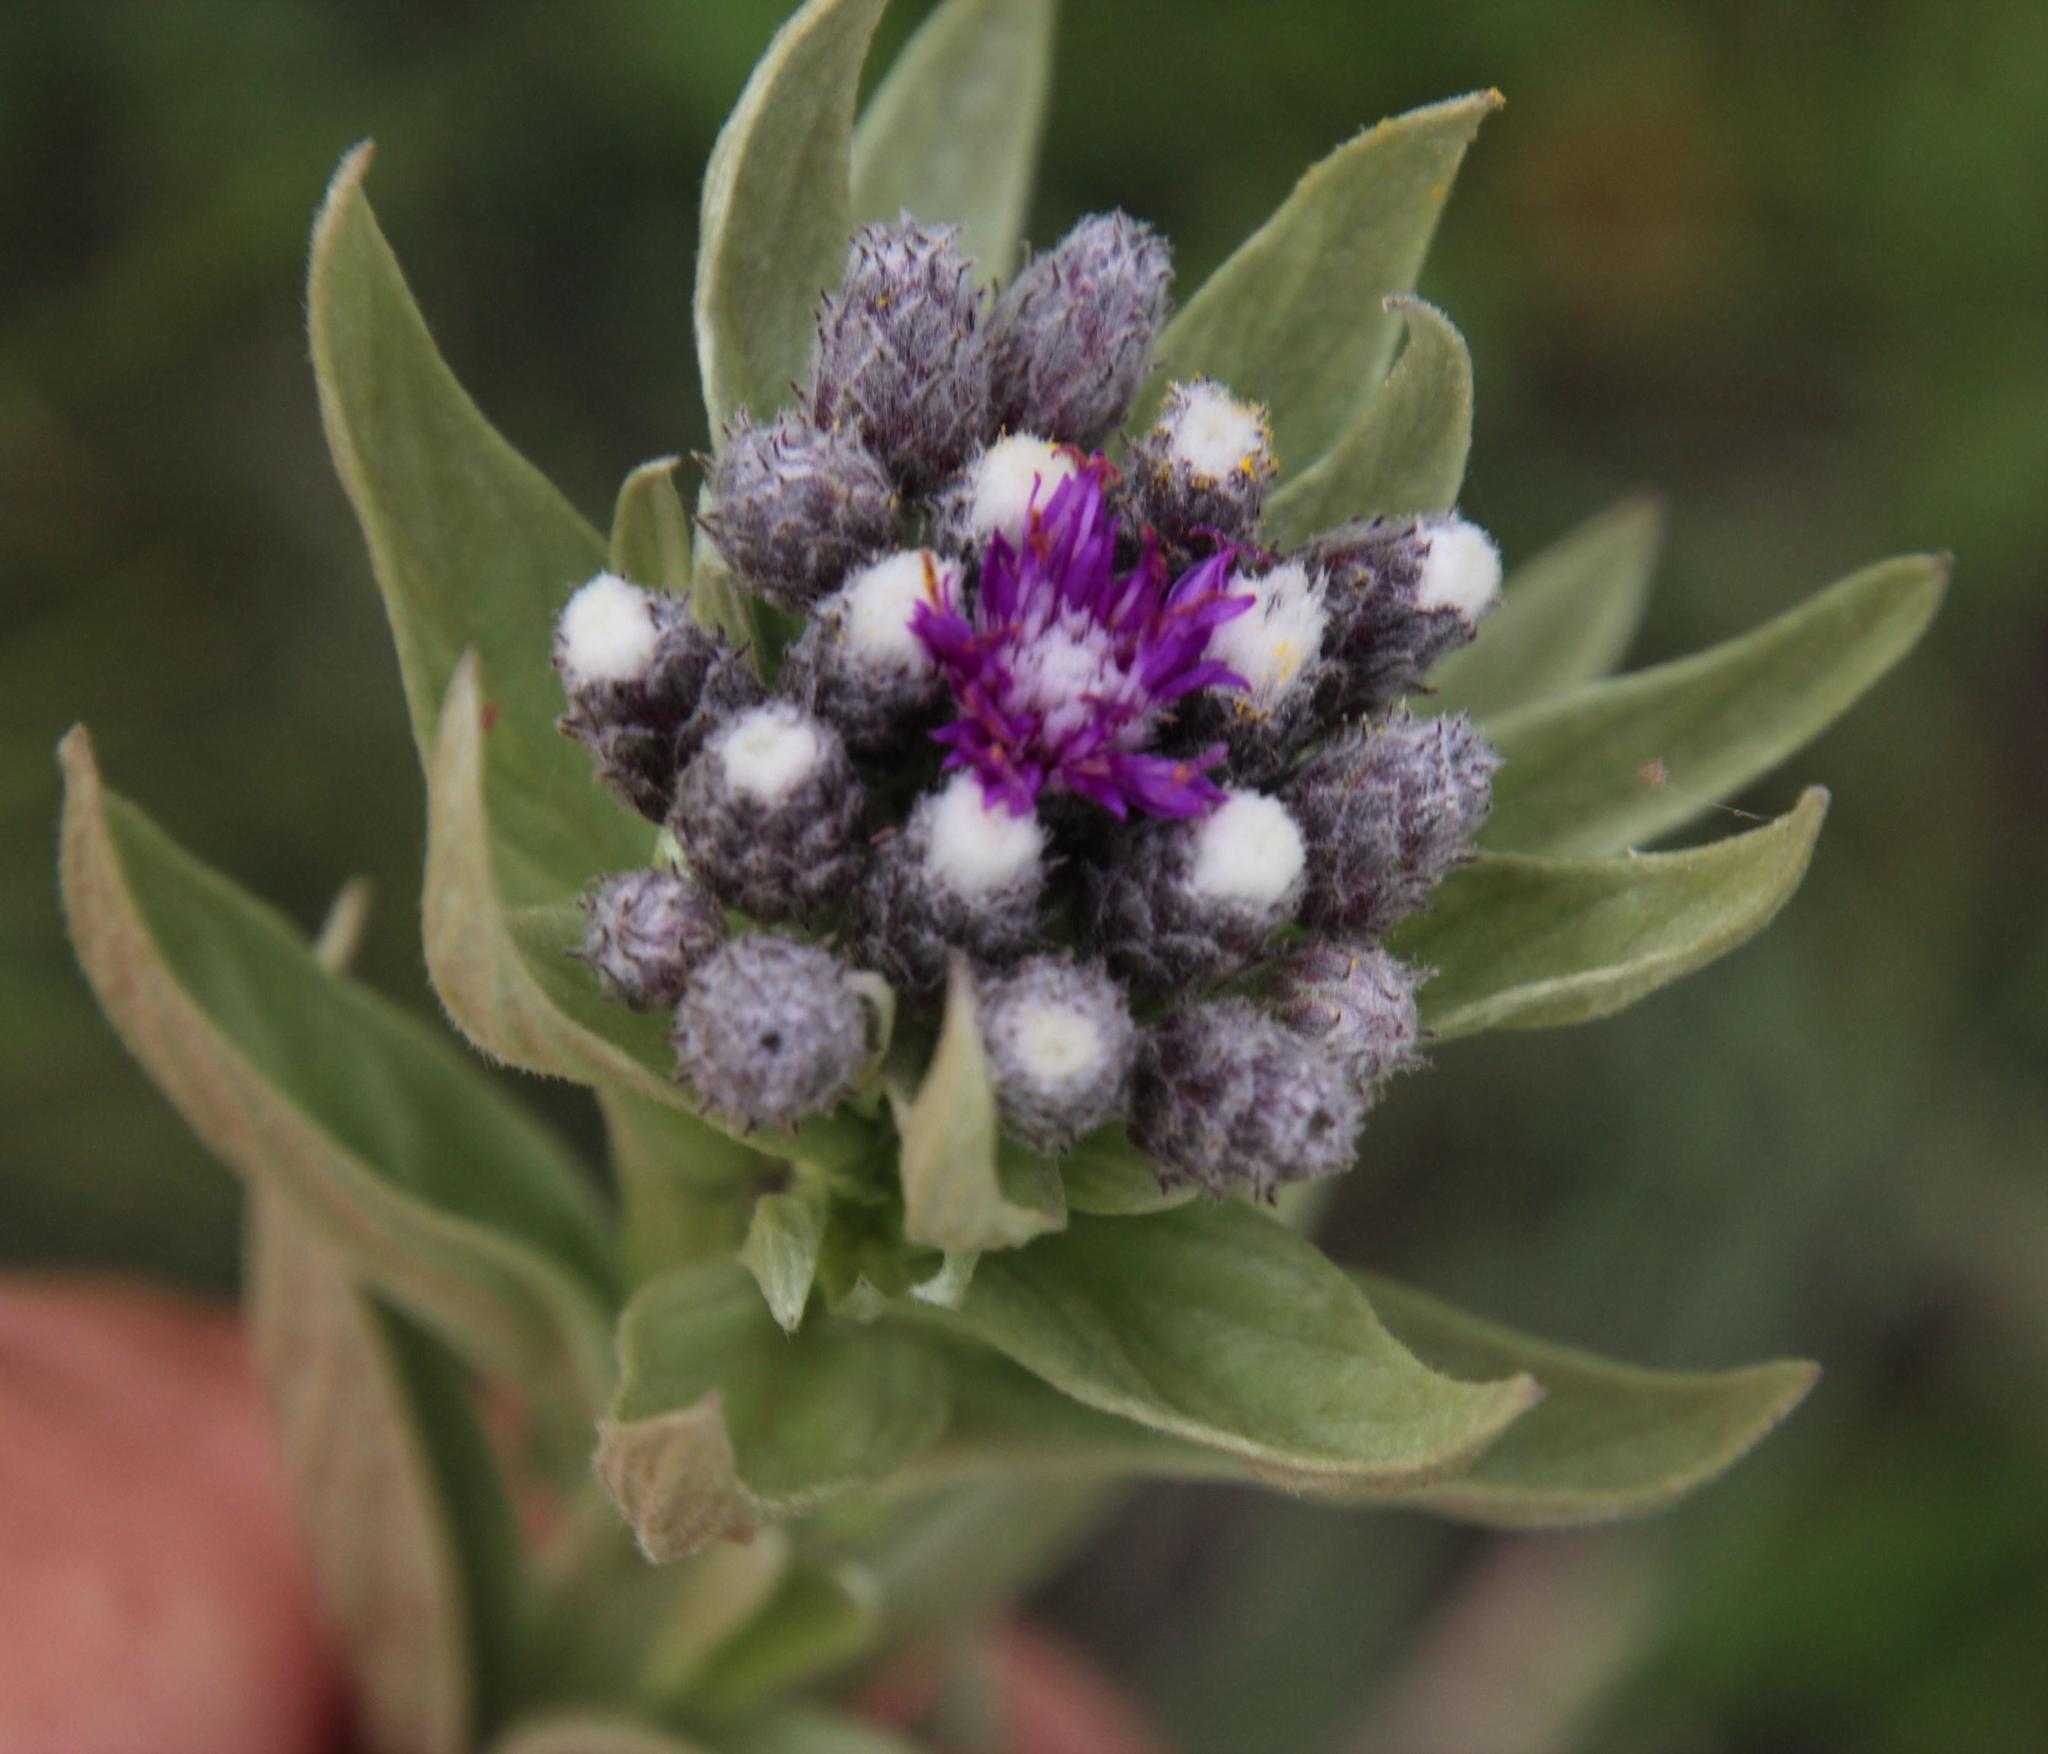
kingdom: Plantae
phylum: Tracheophyta
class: Magnoliopsida
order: Asterales
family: Asteraceae
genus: Hilliardiella
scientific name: Hilliardiella aristata
